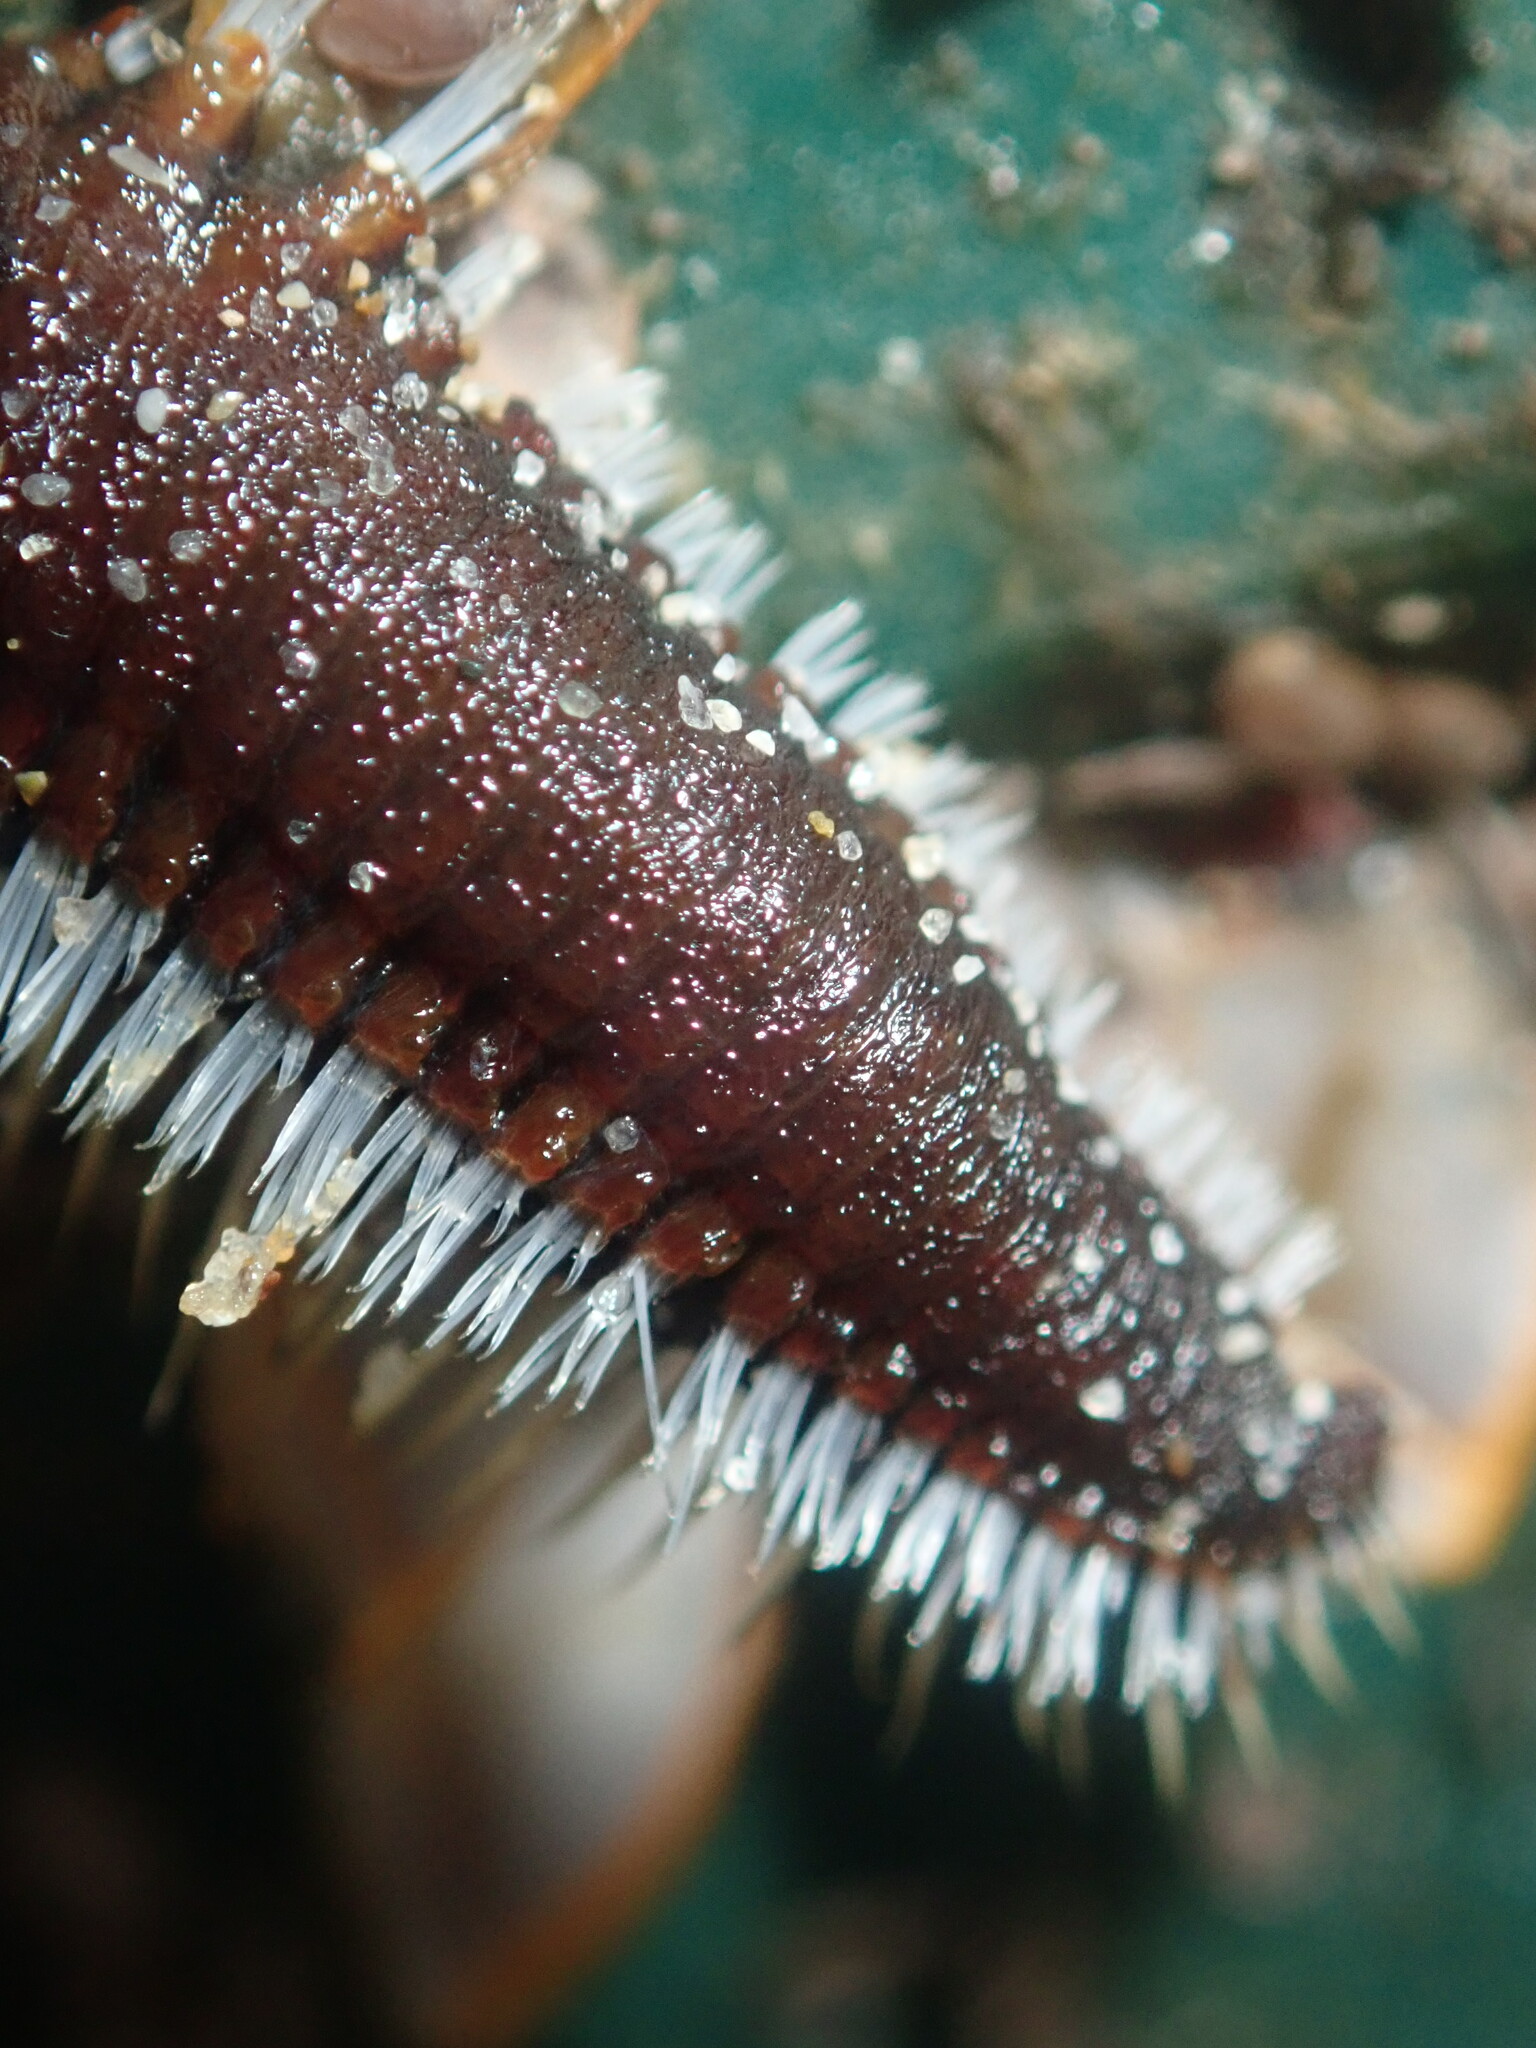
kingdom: Animalia
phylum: Annelida
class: Polychaeta
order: Amphinomida
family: Amphinomidae
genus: Amphinome
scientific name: Amphinome rostrata
